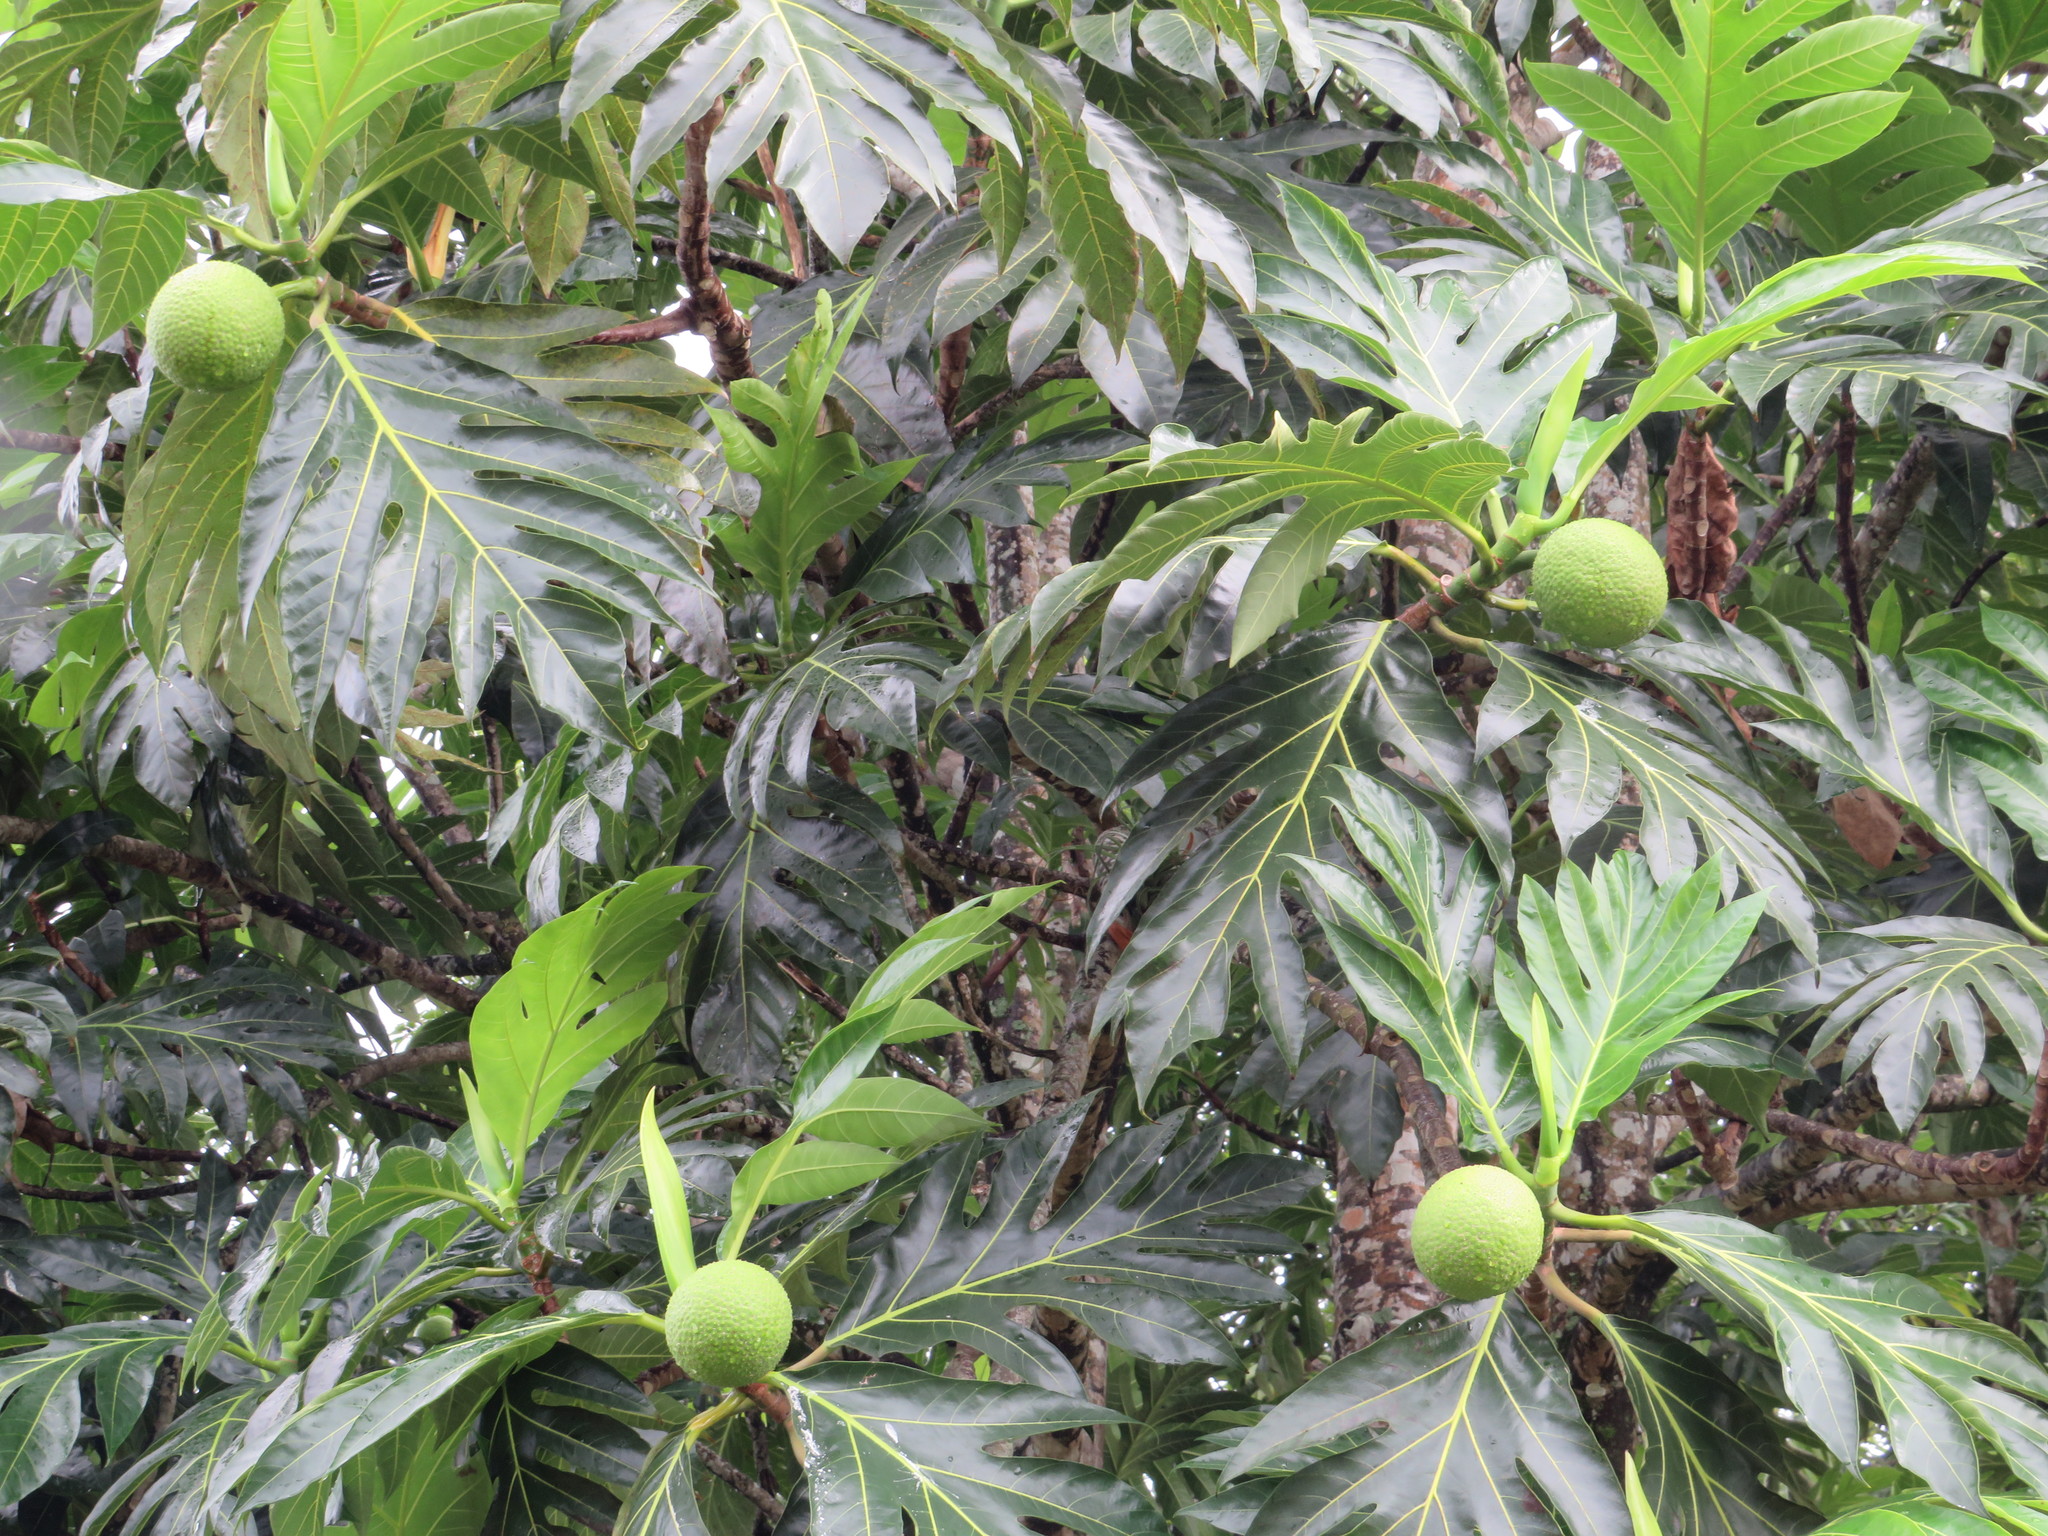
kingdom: Plantae
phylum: Tracheophyta
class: Magnoliopsida
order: Rosales
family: Moraceae
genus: Artocarpus
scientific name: Artocarpus altilis
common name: Breadfruit
